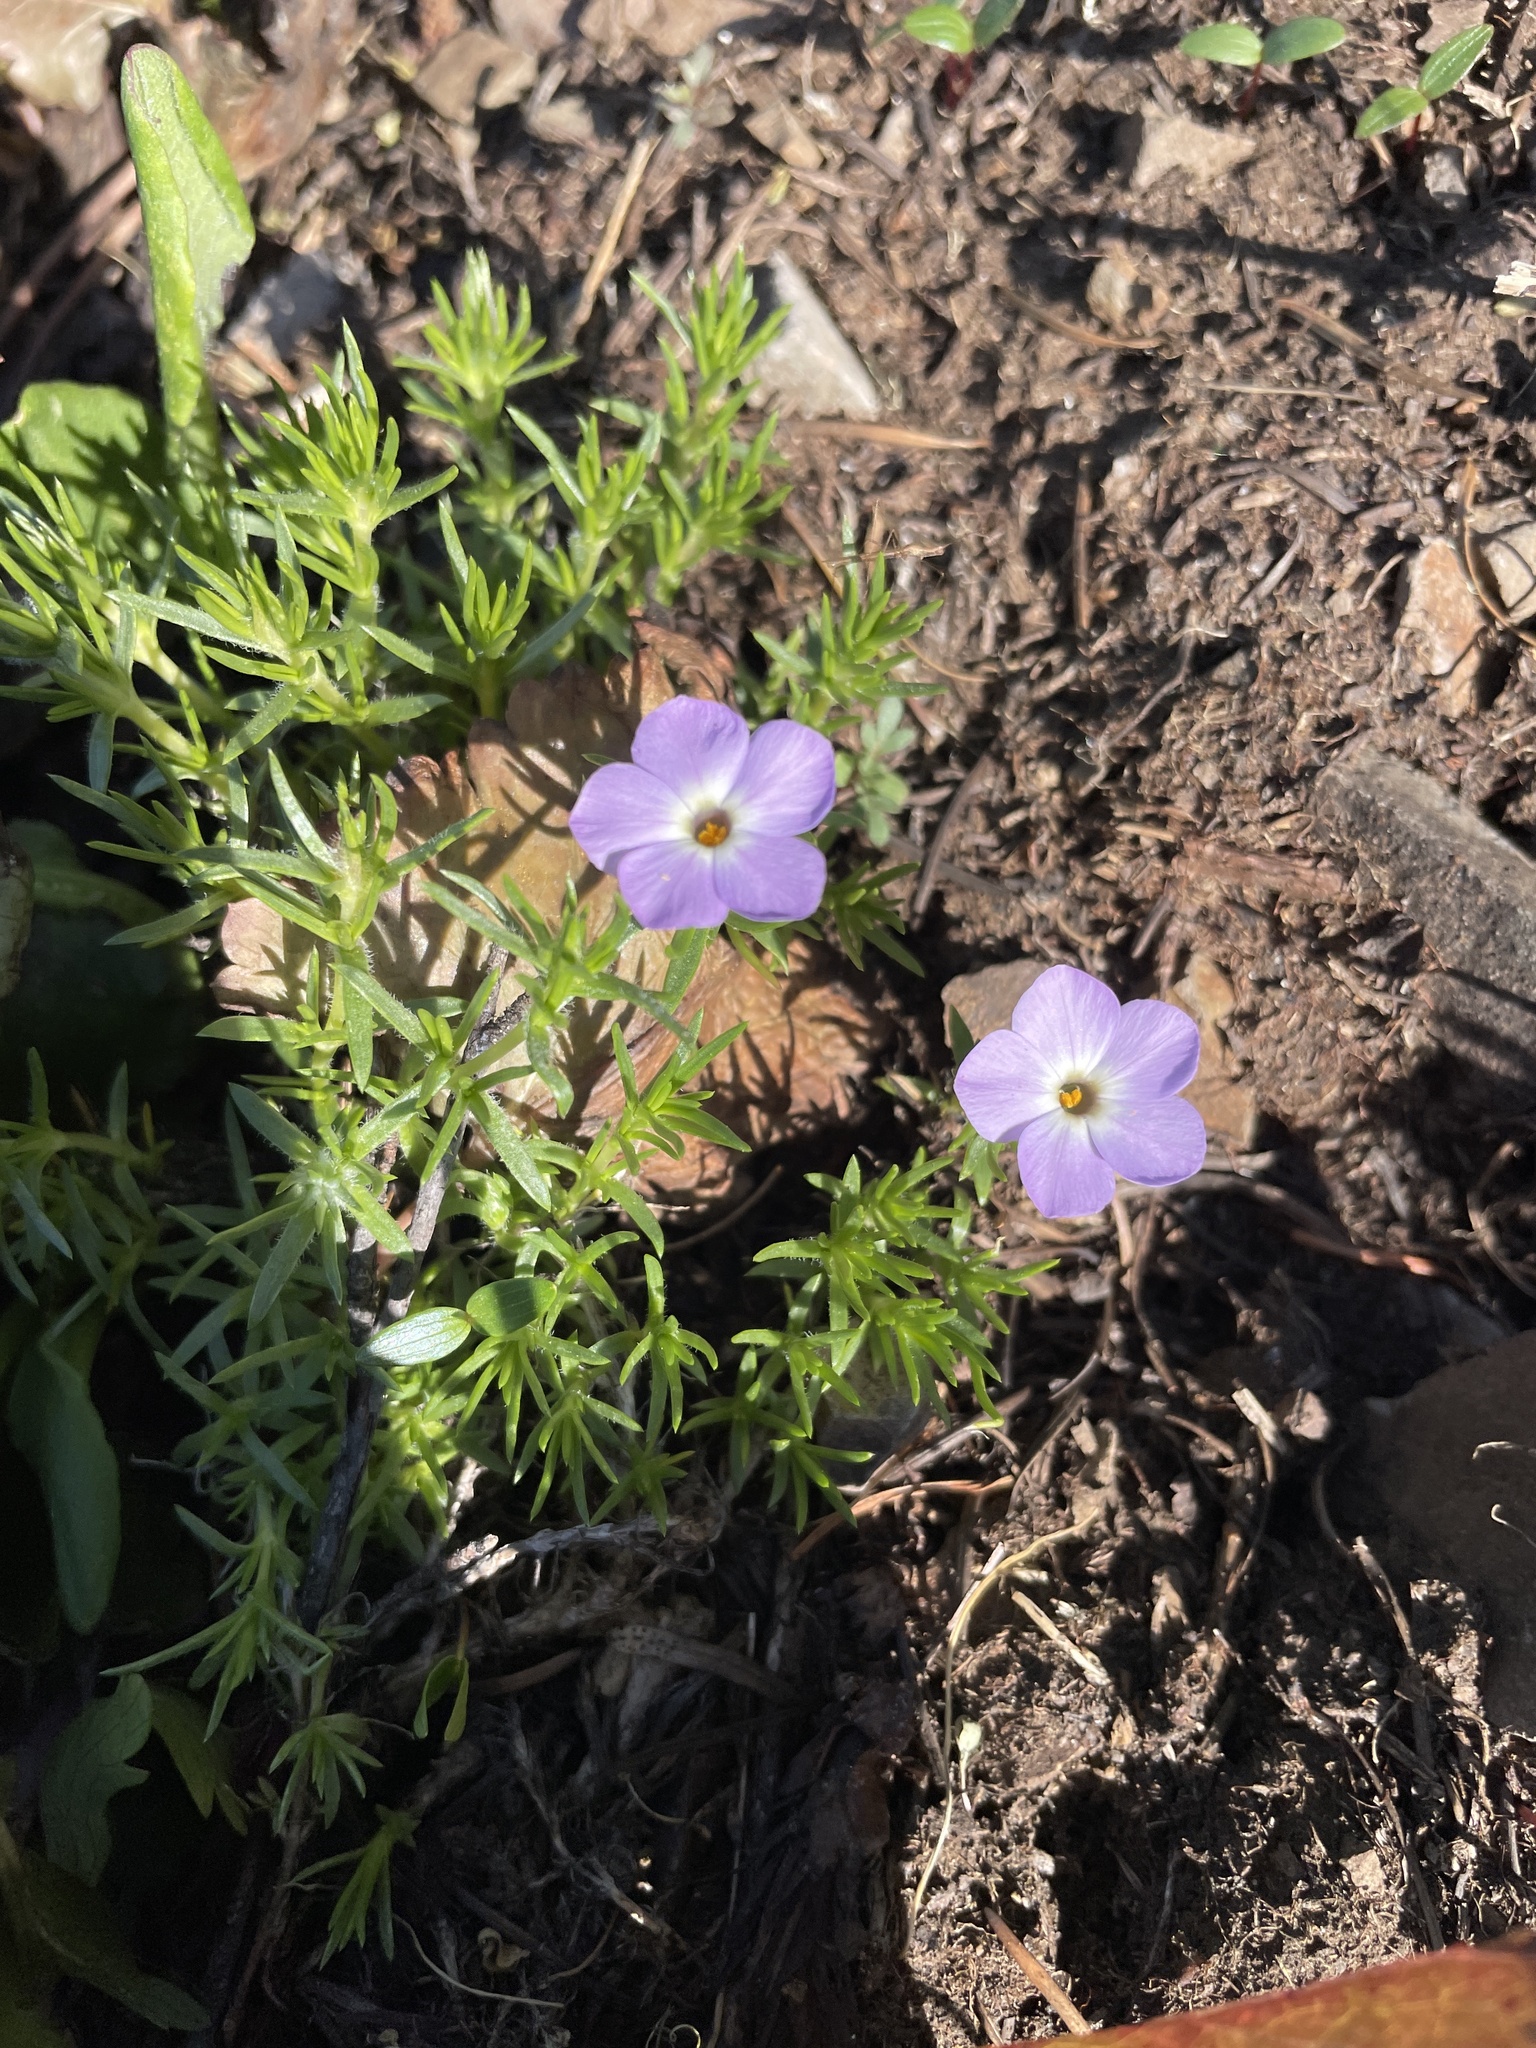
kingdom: Plantae
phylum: Tracheophyta
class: Magnoliopsida
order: Ericales
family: Polemoniaceae
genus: Phlox
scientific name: Phlox diffusa
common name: Mat phlox
